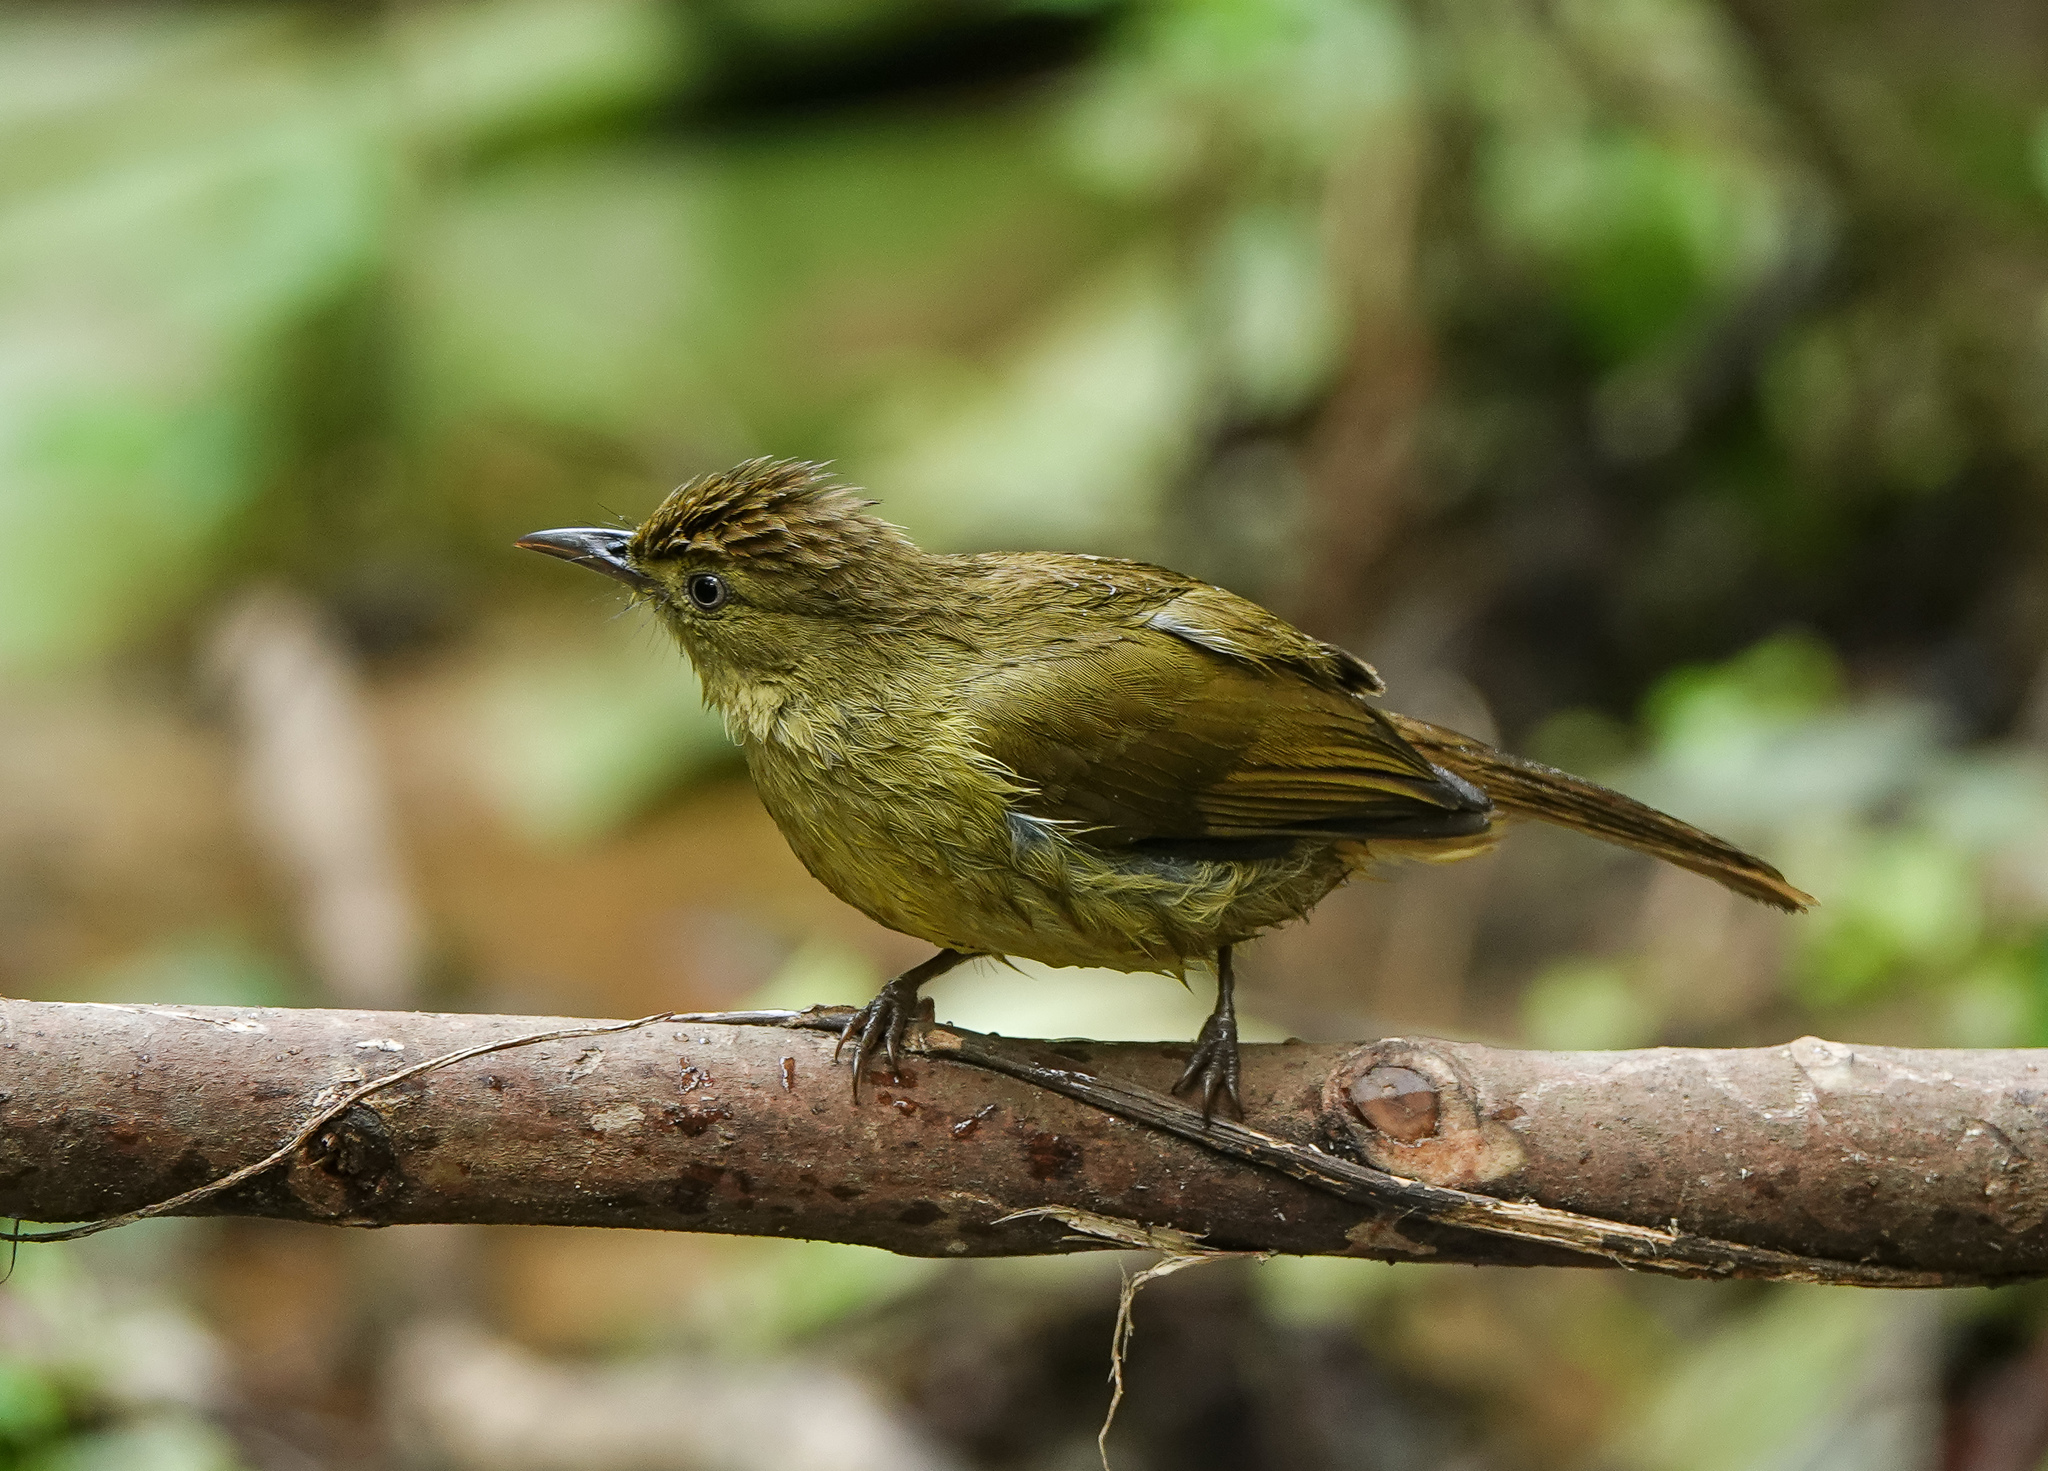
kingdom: Animalia
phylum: Chordata
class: Aves
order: Passeriformes
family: Pycnonotidae
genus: Iole
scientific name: Iole virescens
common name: Olive bulbul
